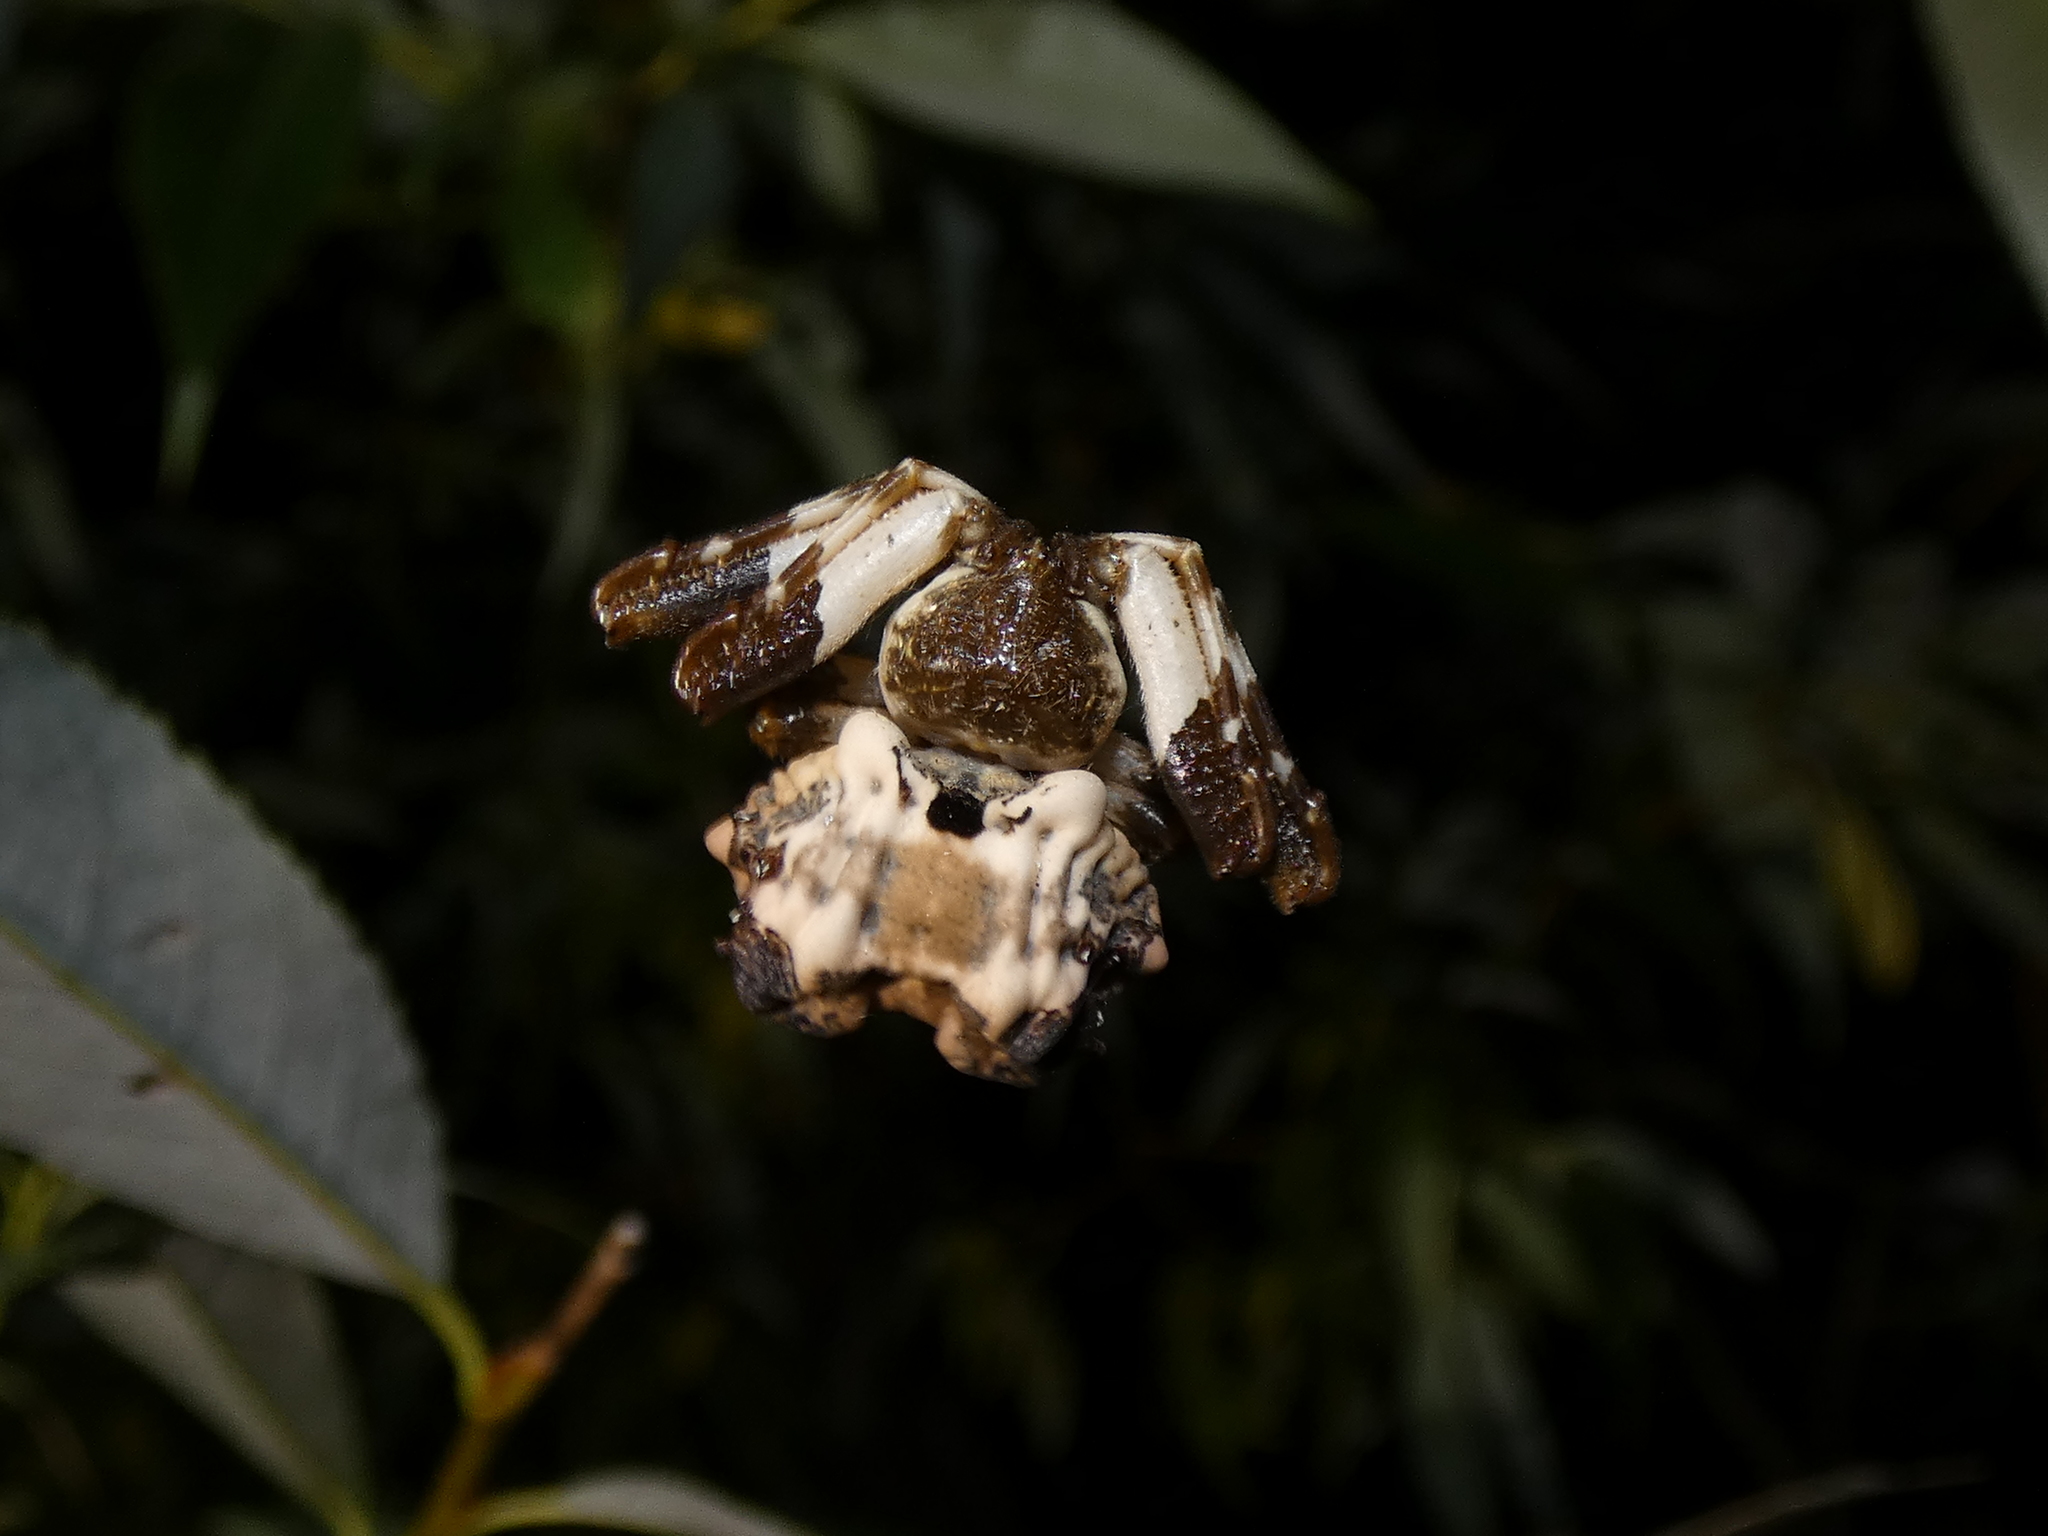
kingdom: Animalia
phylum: Arthropoda
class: Arachnida
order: Araneae
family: Araneidae
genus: Celaenia
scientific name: Celaenia excavata
